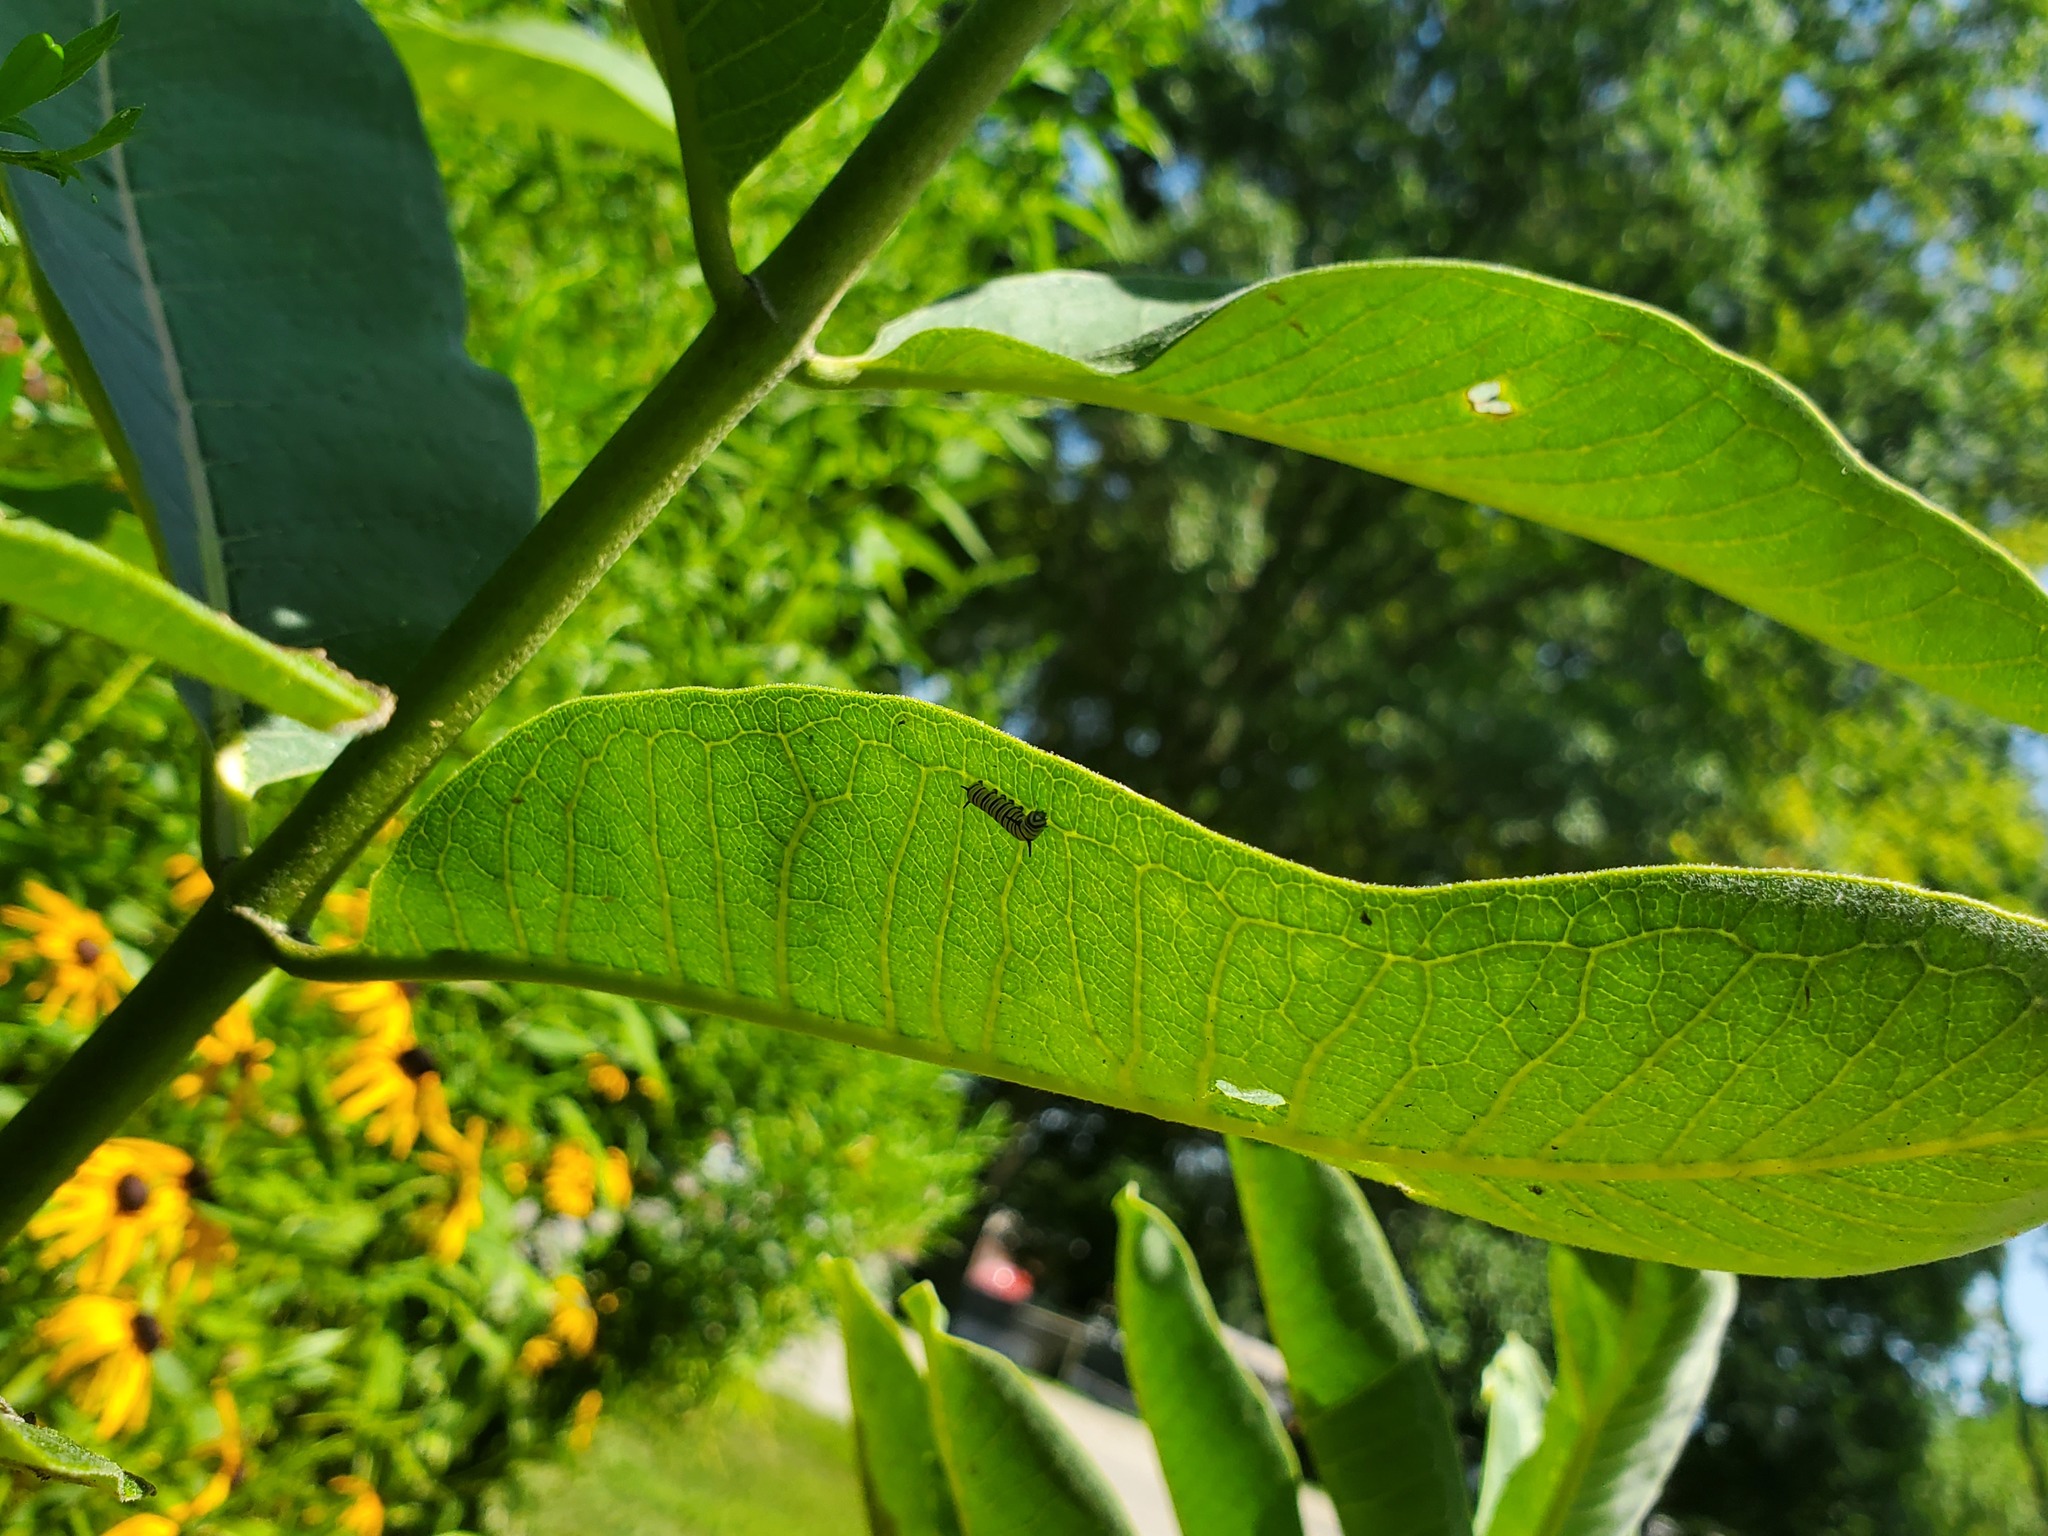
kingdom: Animalia
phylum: Arthropoda
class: Insecta
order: Lepidoptera
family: Nymphalidae
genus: Danaus
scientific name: Danaus plexippus
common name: Monarch
